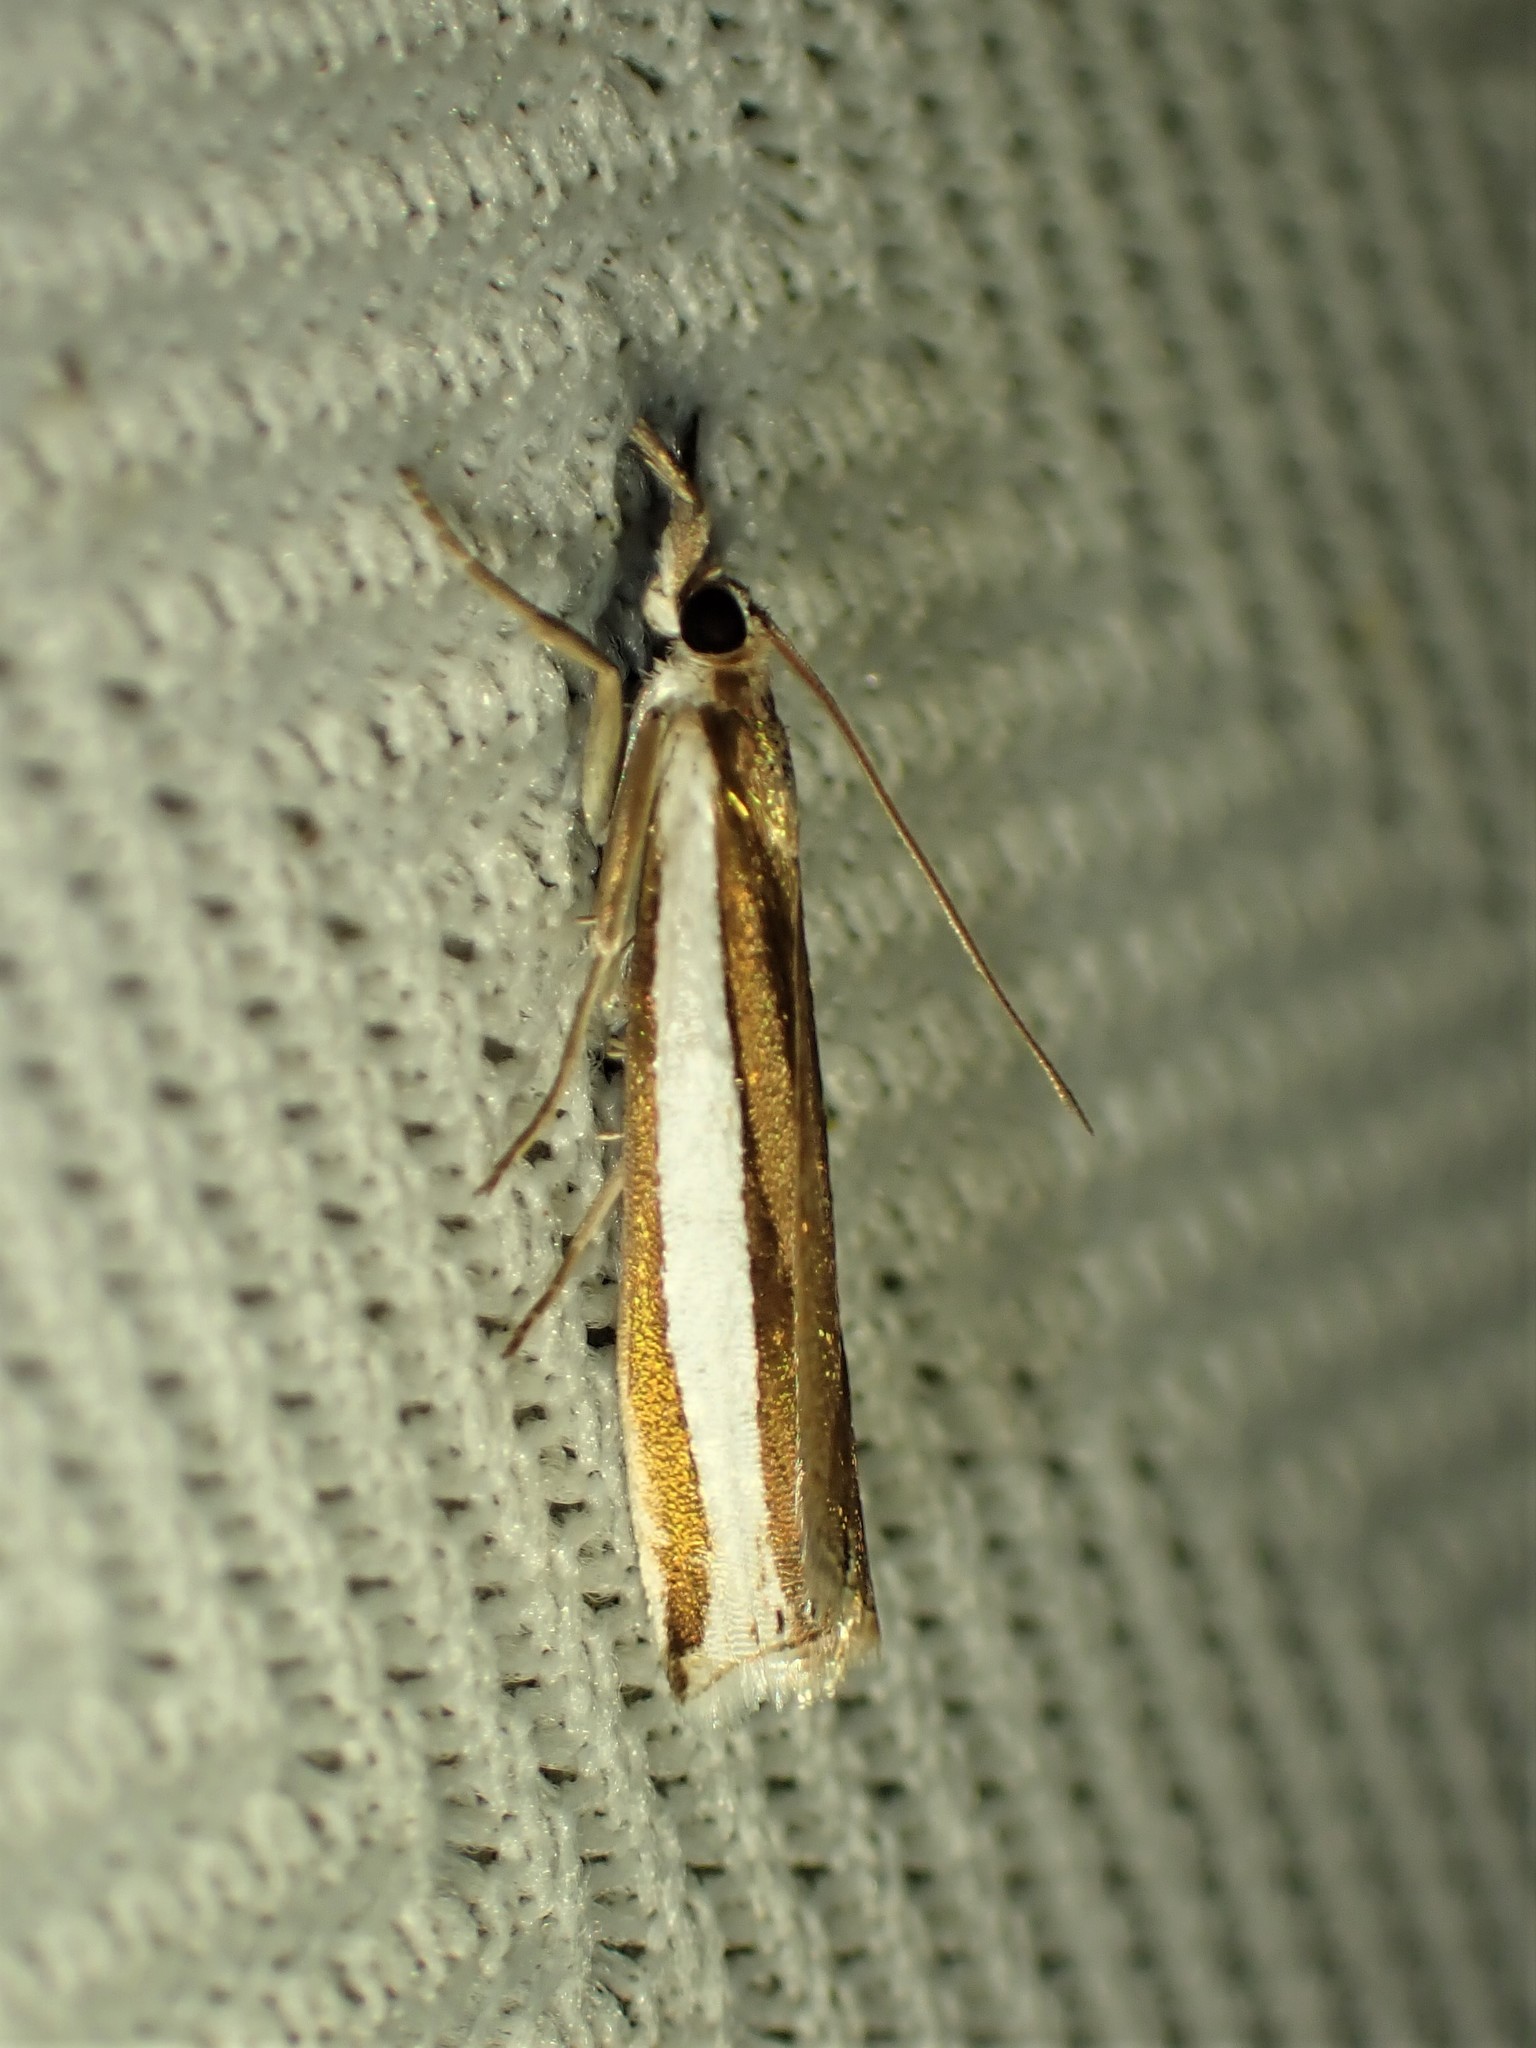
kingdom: Animalia
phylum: Arthropoda
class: Insecta
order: Lepidoptera
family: Crambidae
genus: Crambus
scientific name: Crambus unistriatellus
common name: Wide-stripe grass-veneer moth
